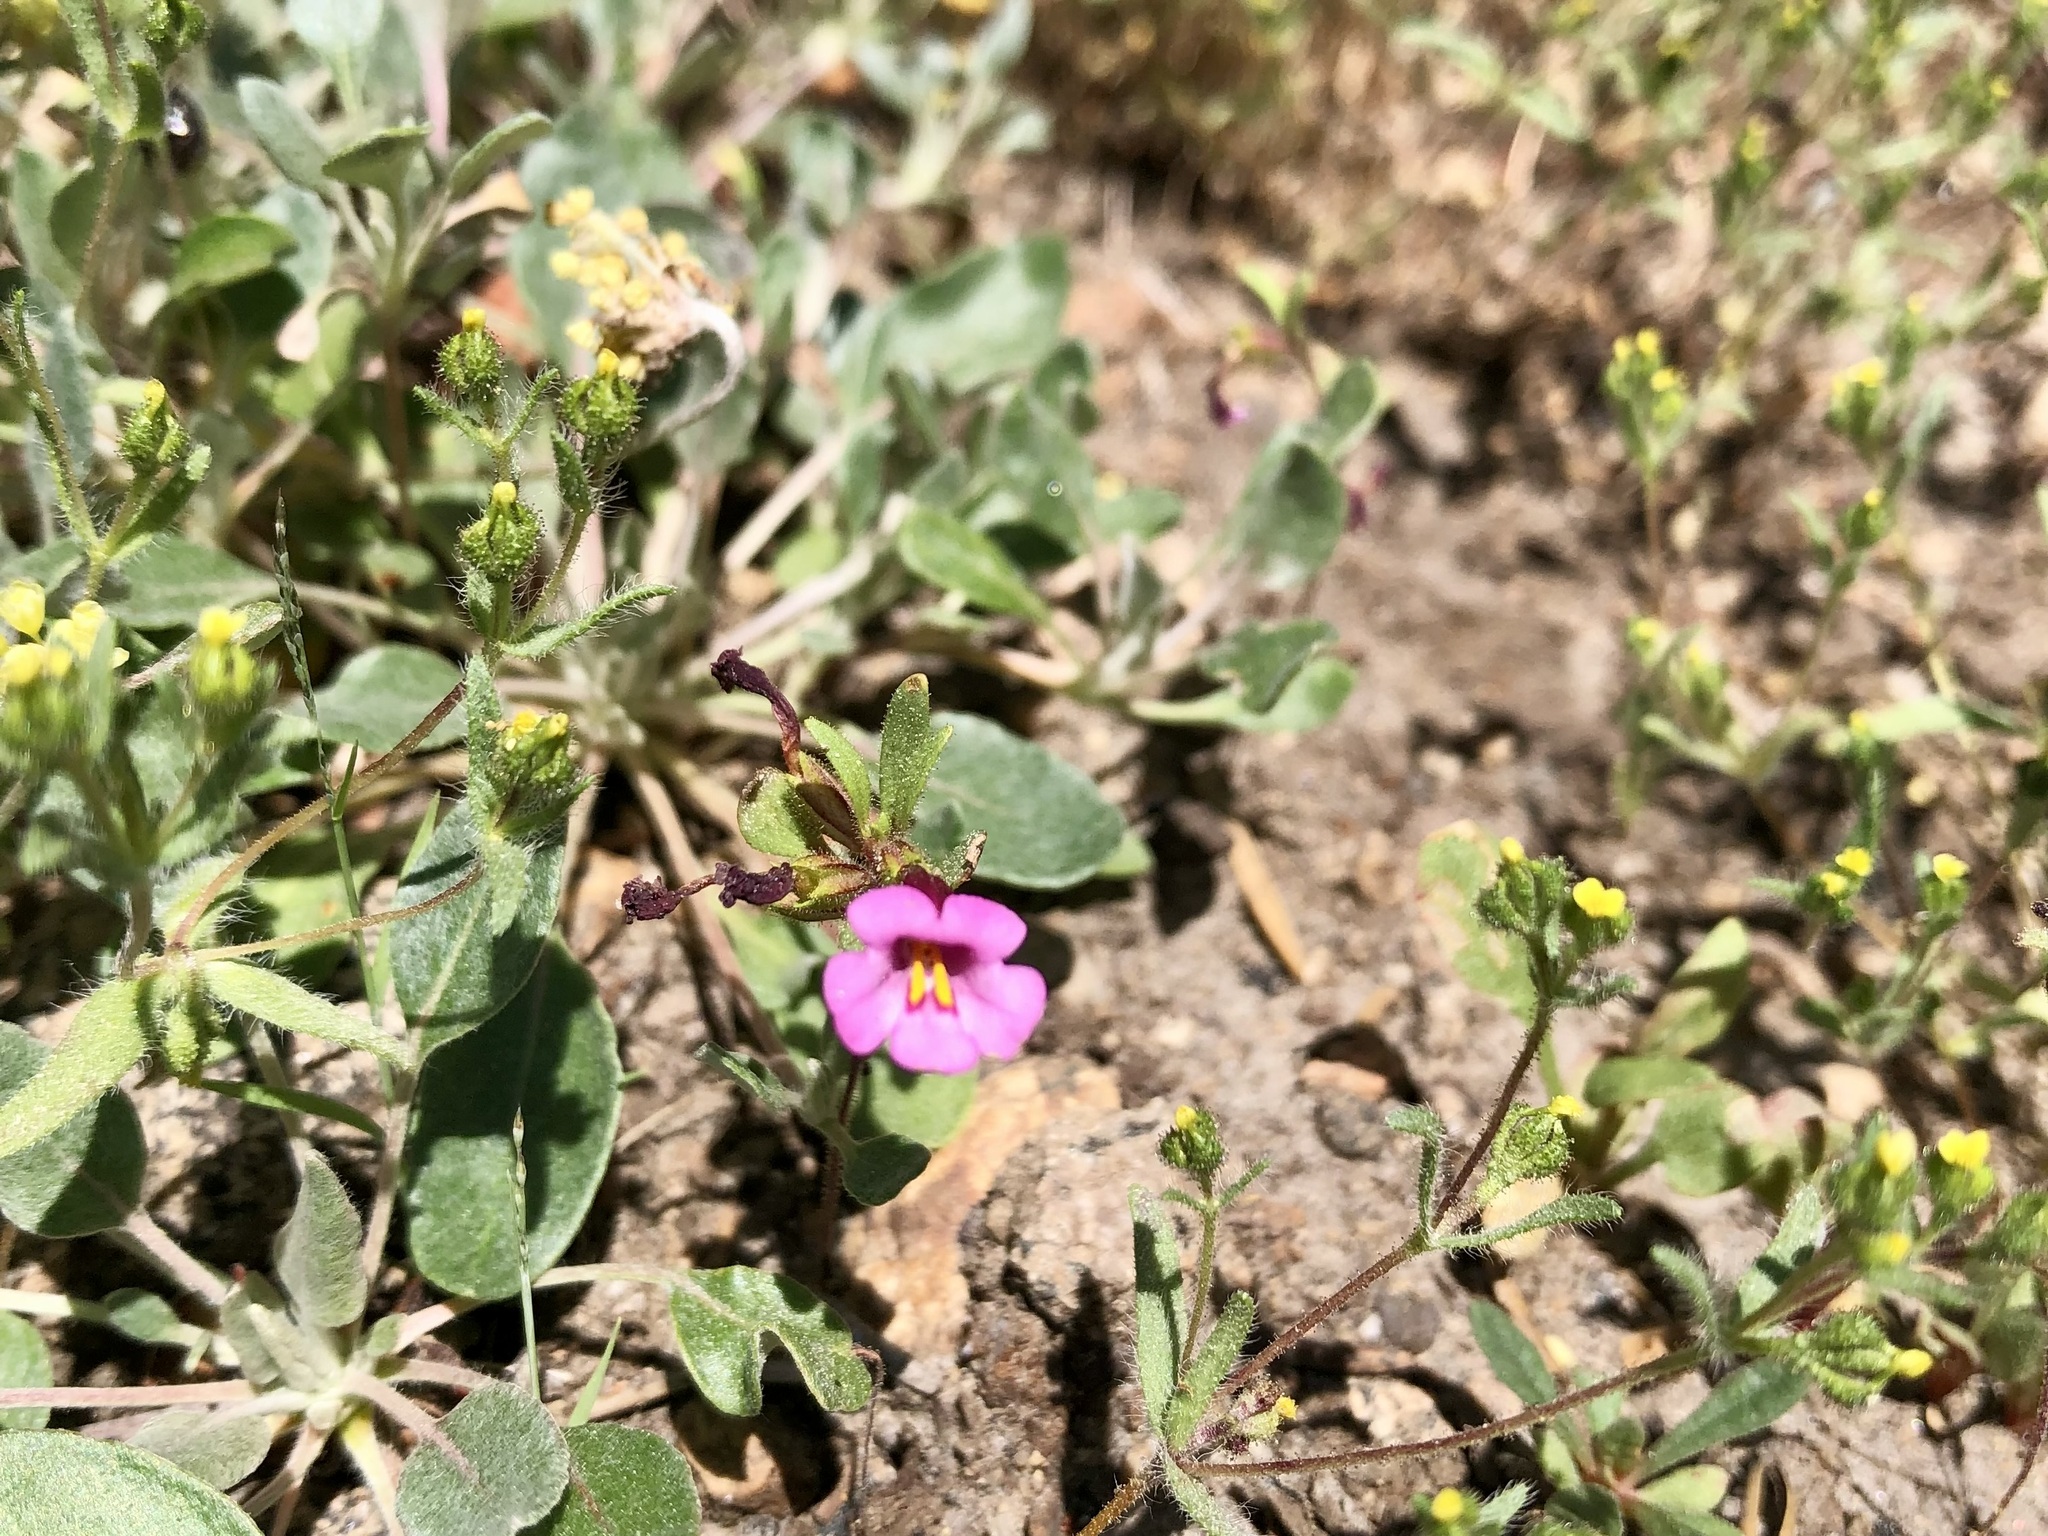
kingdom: Plantae
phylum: Tracheophyta
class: Magnoliopsida
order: Lamiales
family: Phrymaceae
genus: Diplacus
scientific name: Diplacus torreyi
